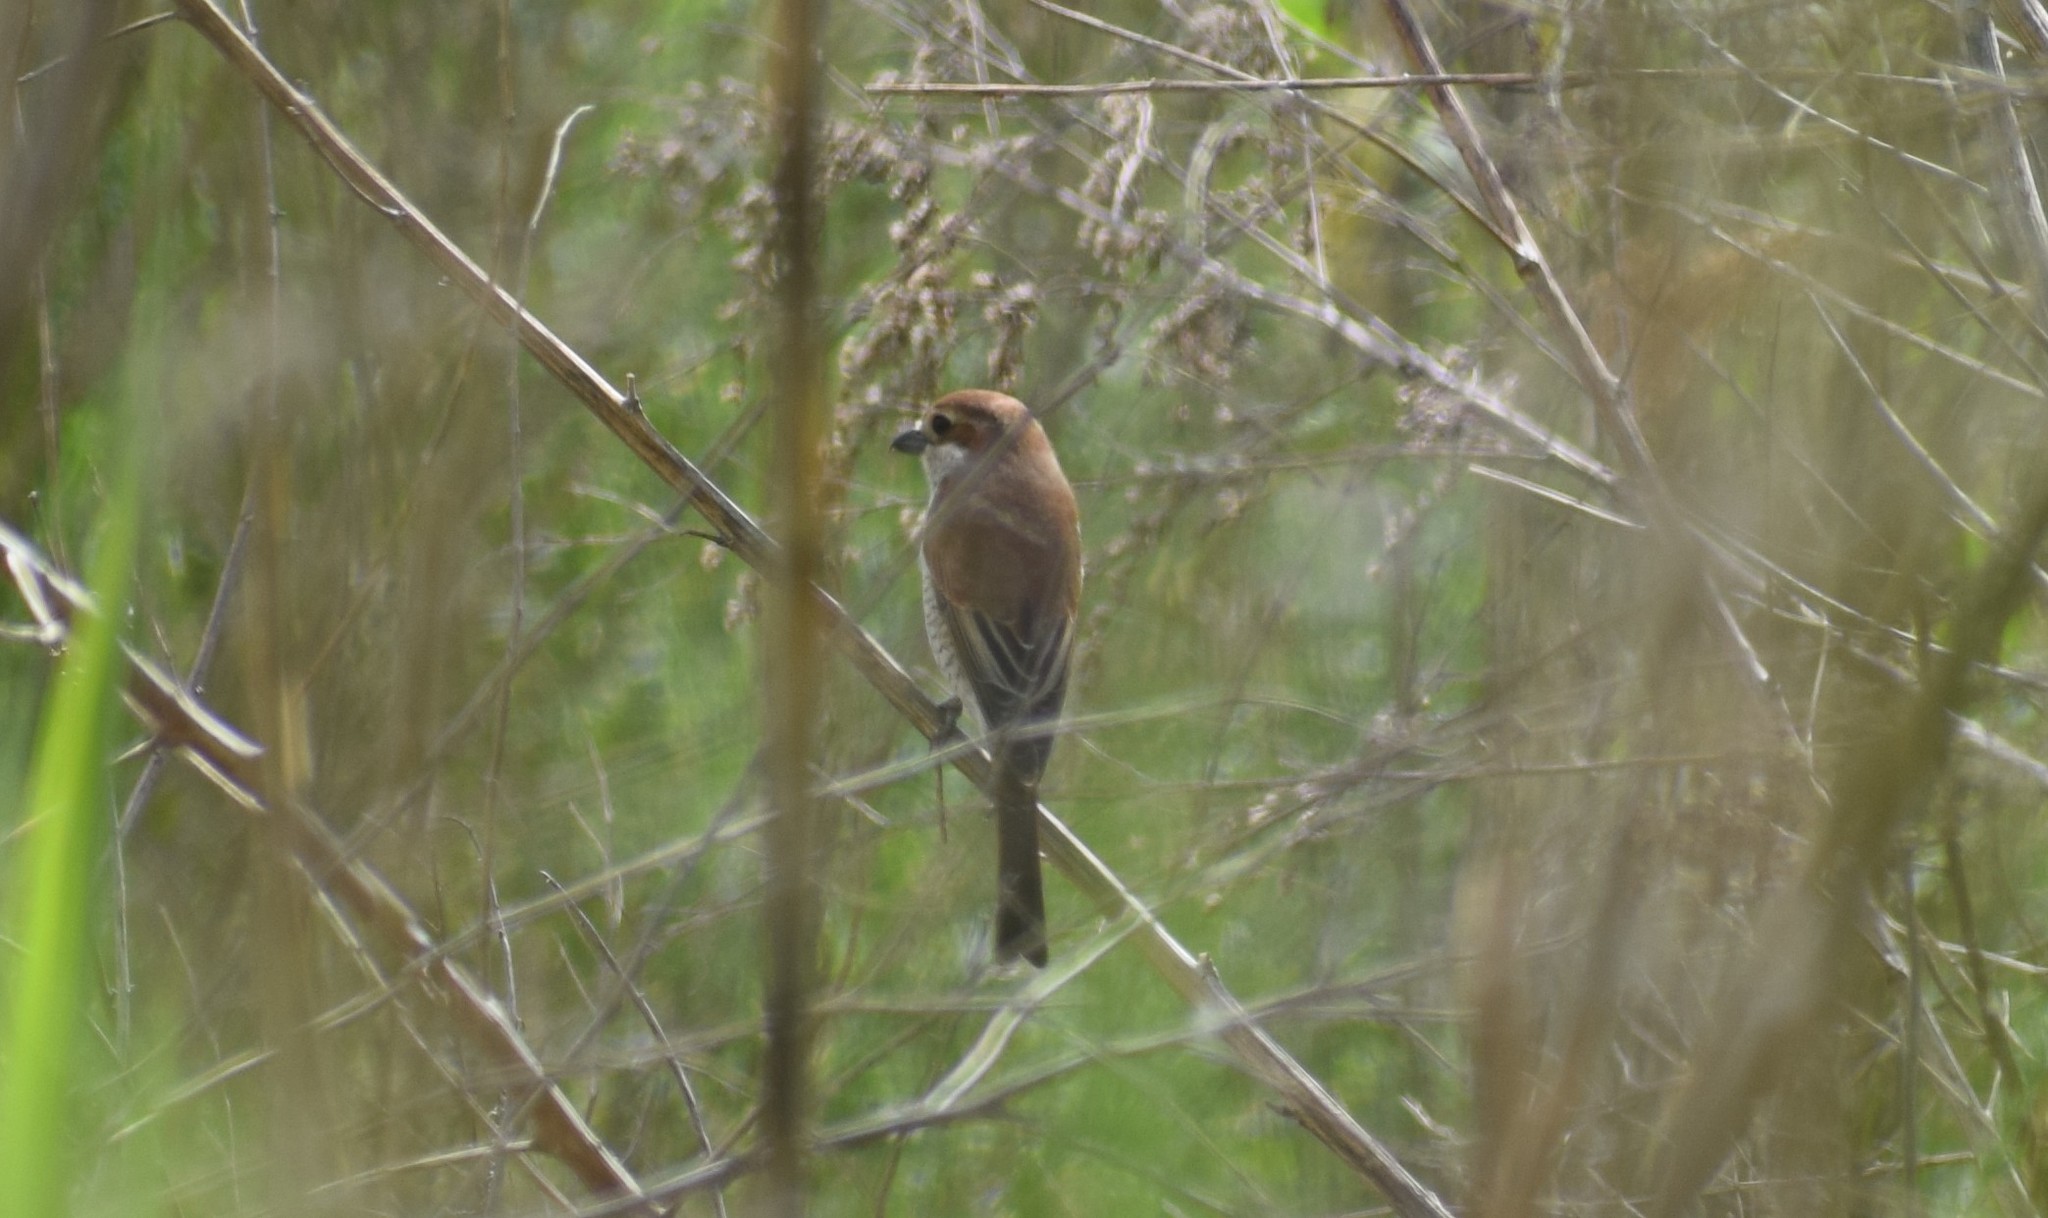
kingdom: Animalia
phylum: Chordata
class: Aves
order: Passeriformes
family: Laniidae
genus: Lanius
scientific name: Lanius collurio
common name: Red-backed shrike
